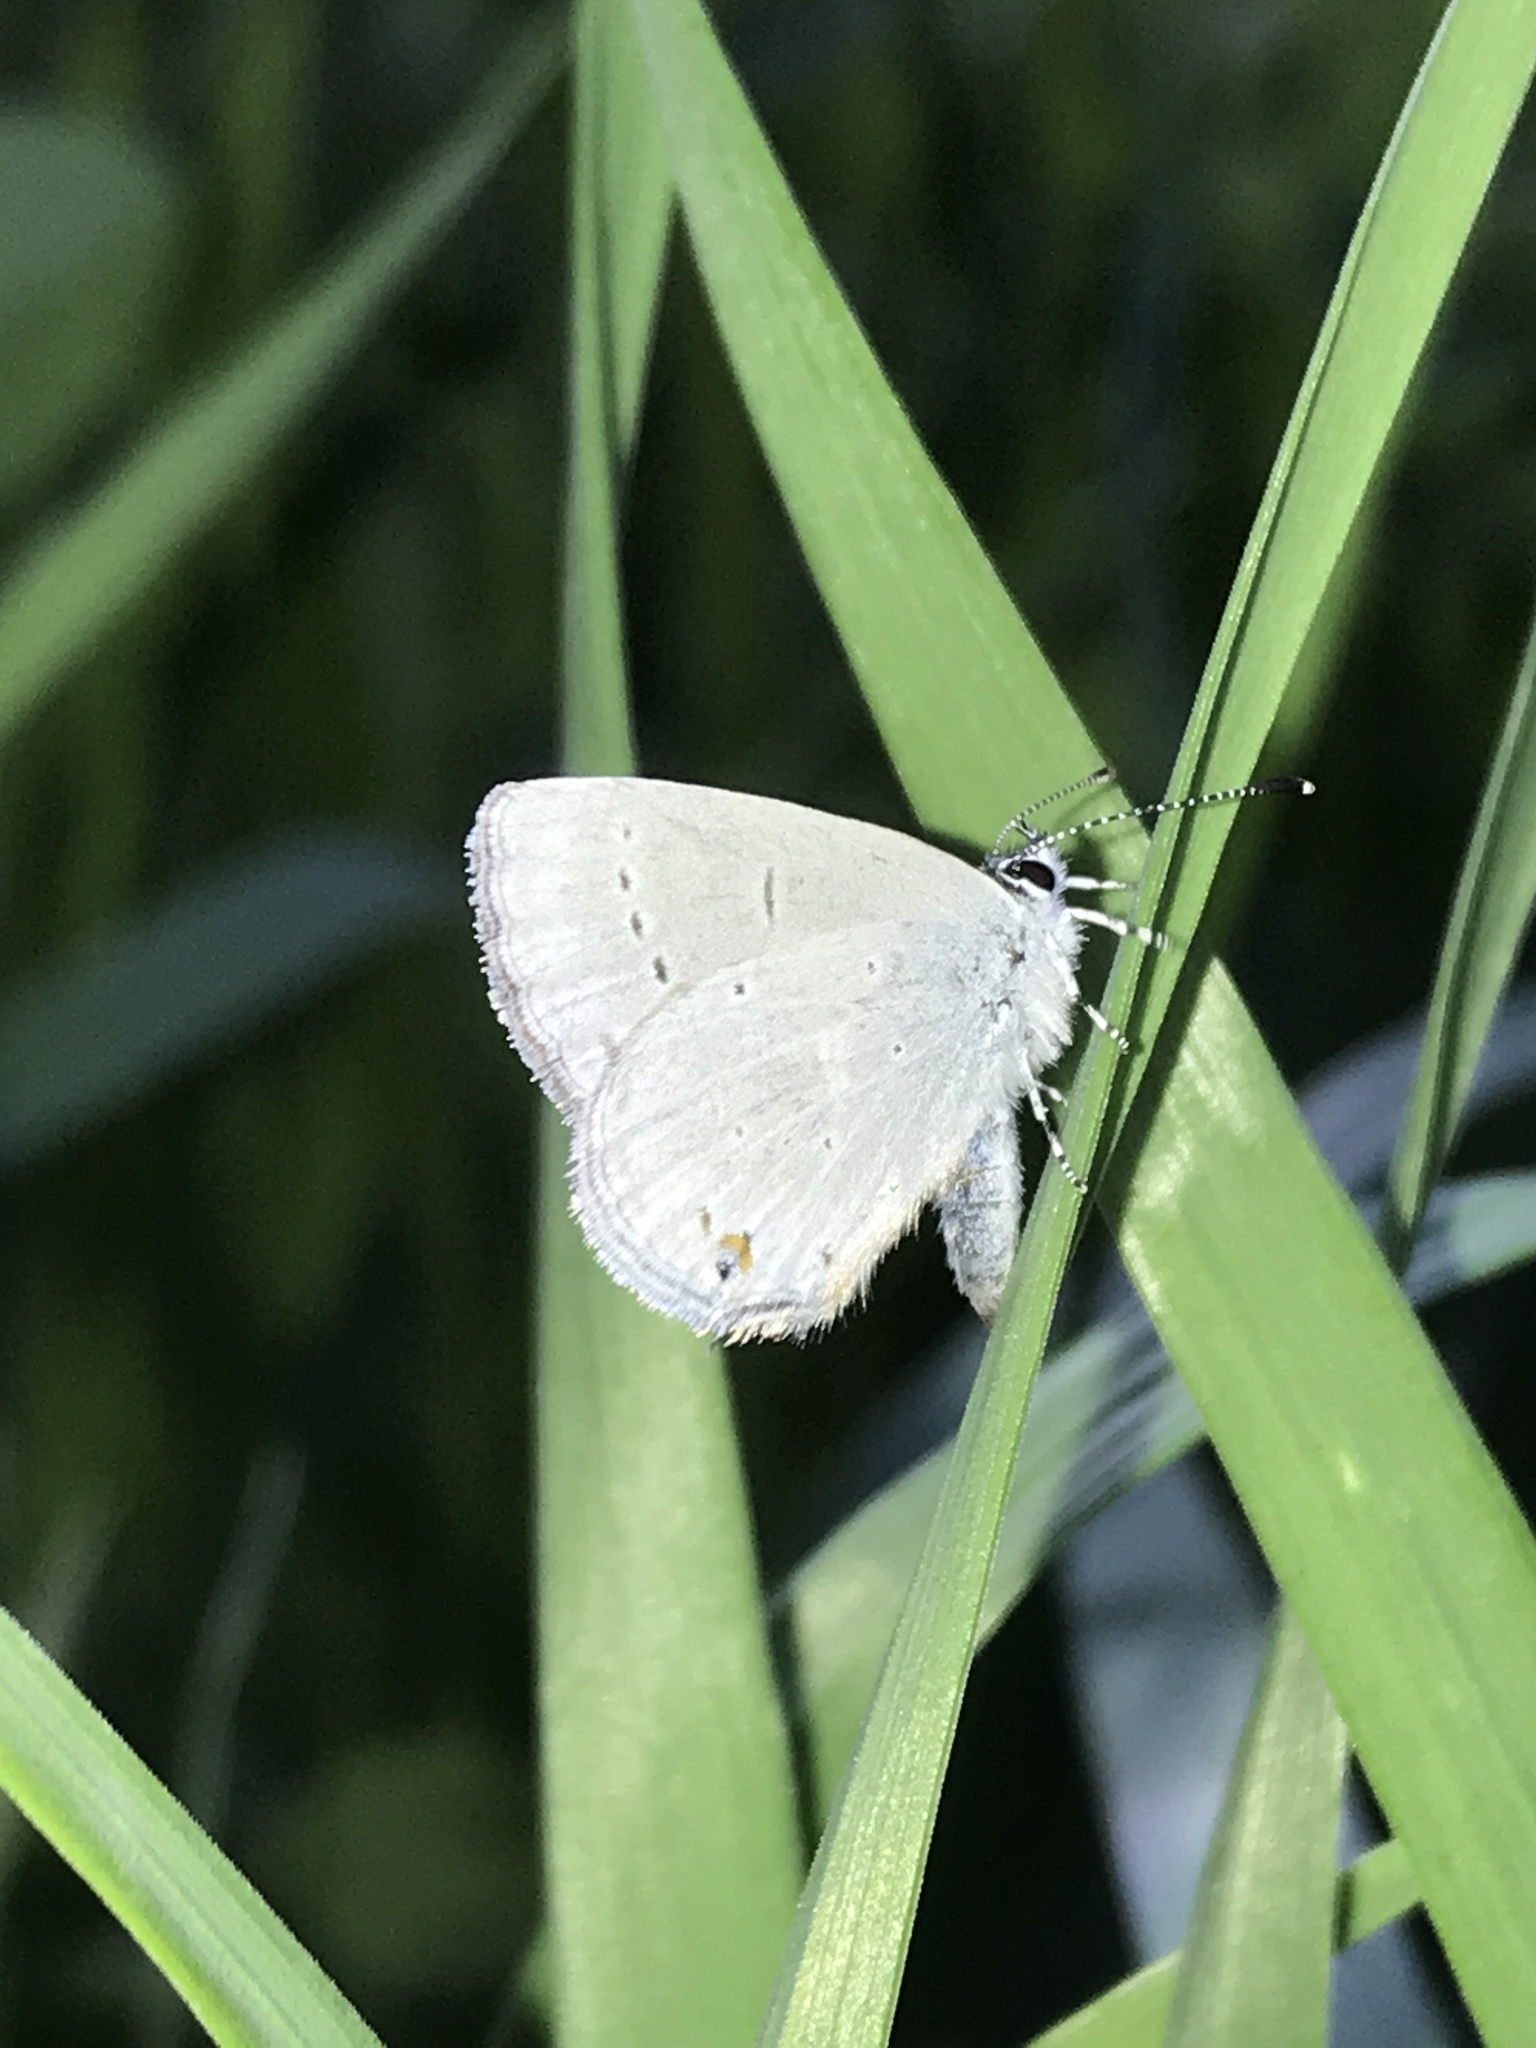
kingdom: Animalia
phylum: Arthropoda
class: Insecta
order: Lepidoptera
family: Lycaenidae
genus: Elkalyce
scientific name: Elkalyce amyntula
